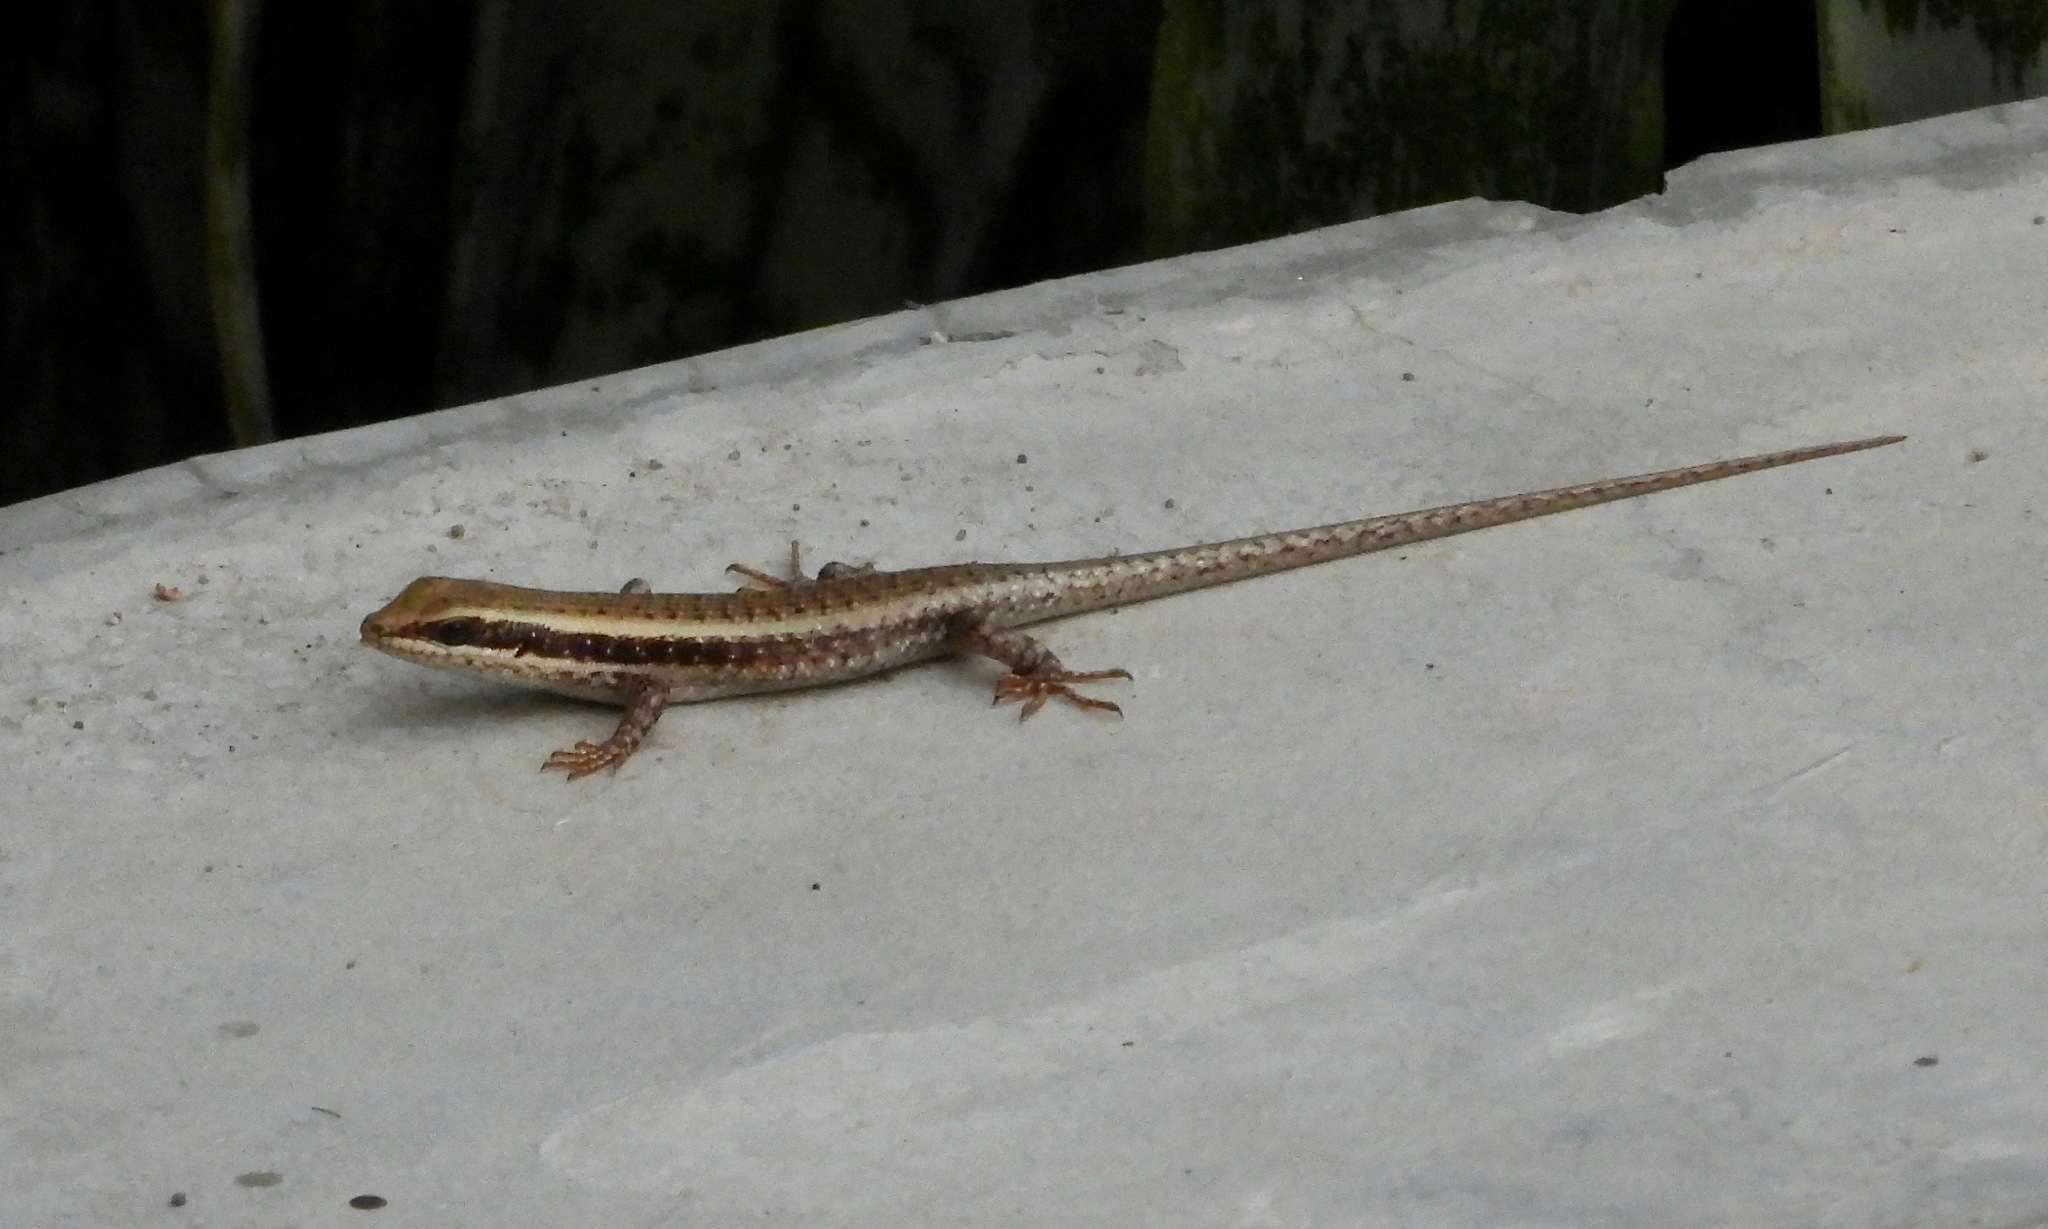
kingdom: Animalia
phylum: Chordata
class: Squamata
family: Scincidae
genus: Trachylepis
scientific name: Trachylepis spilogaster
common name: Kalahari tree skink
